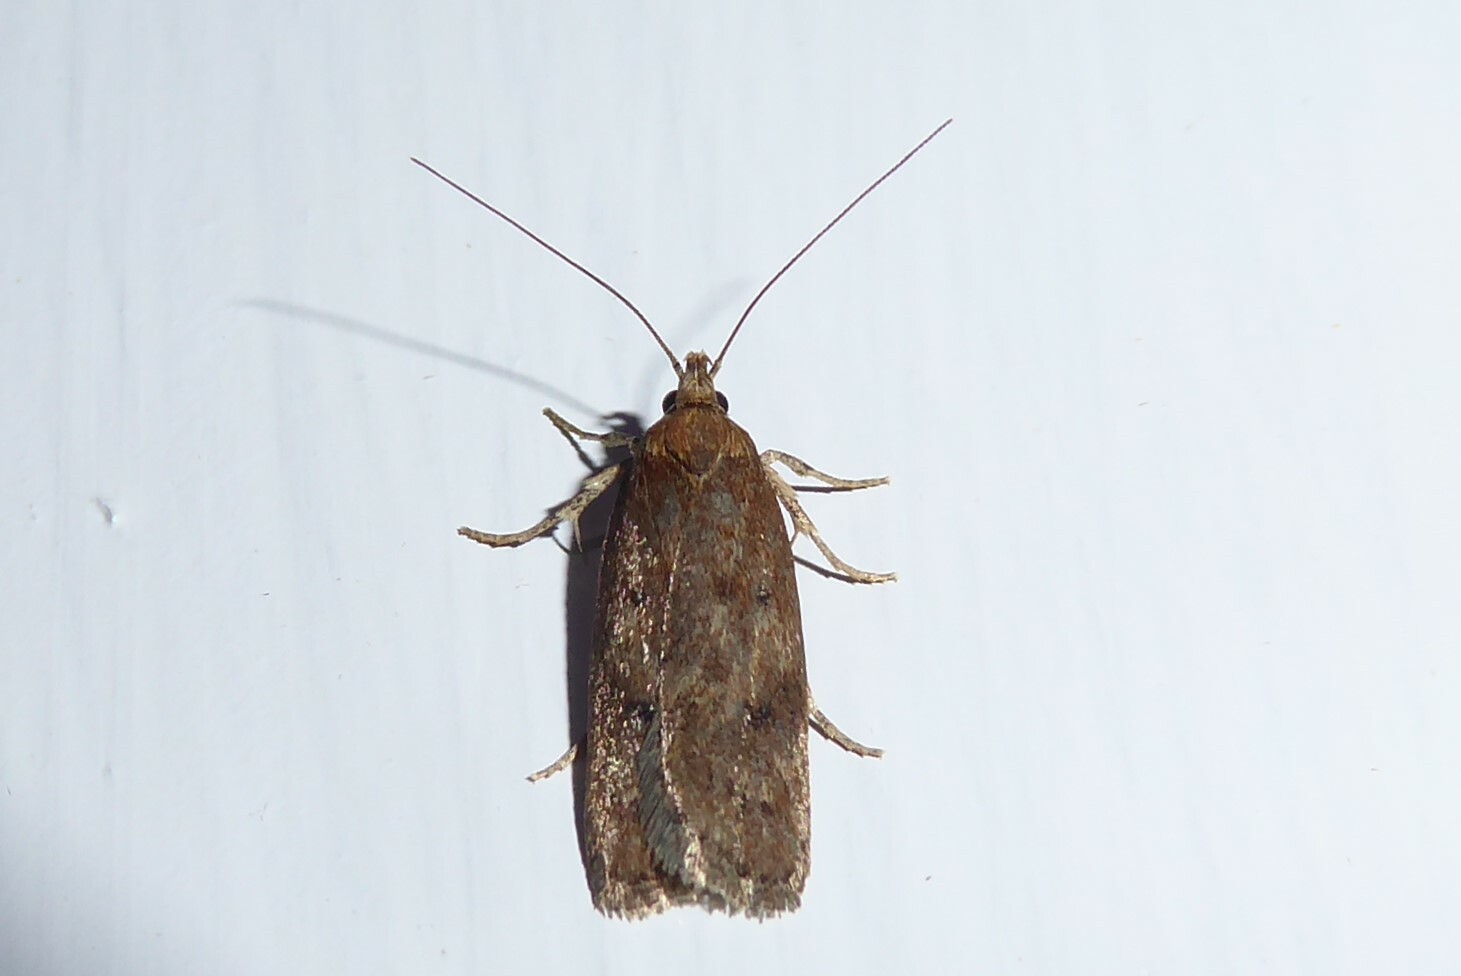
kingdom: Animalia
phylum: Arthropoda
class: Insecta
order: Lepidoptera
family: Depressariidae
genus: Phaeosaces
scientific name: Phaeosaces apocrypta
